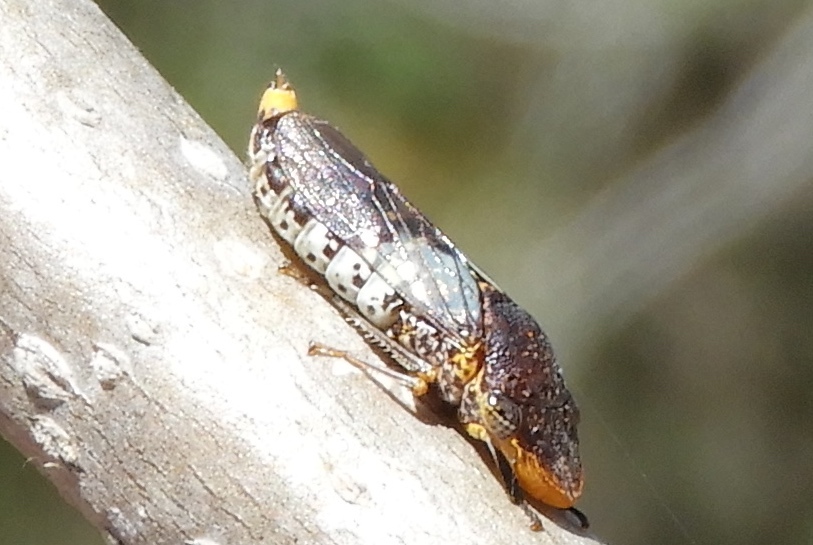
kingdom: Animalia
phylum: Arthropoda
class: Insecta
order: Hemiptera
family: Cicadellidae
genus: Homalodisca
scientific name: Homalodisca ichthyocephala
